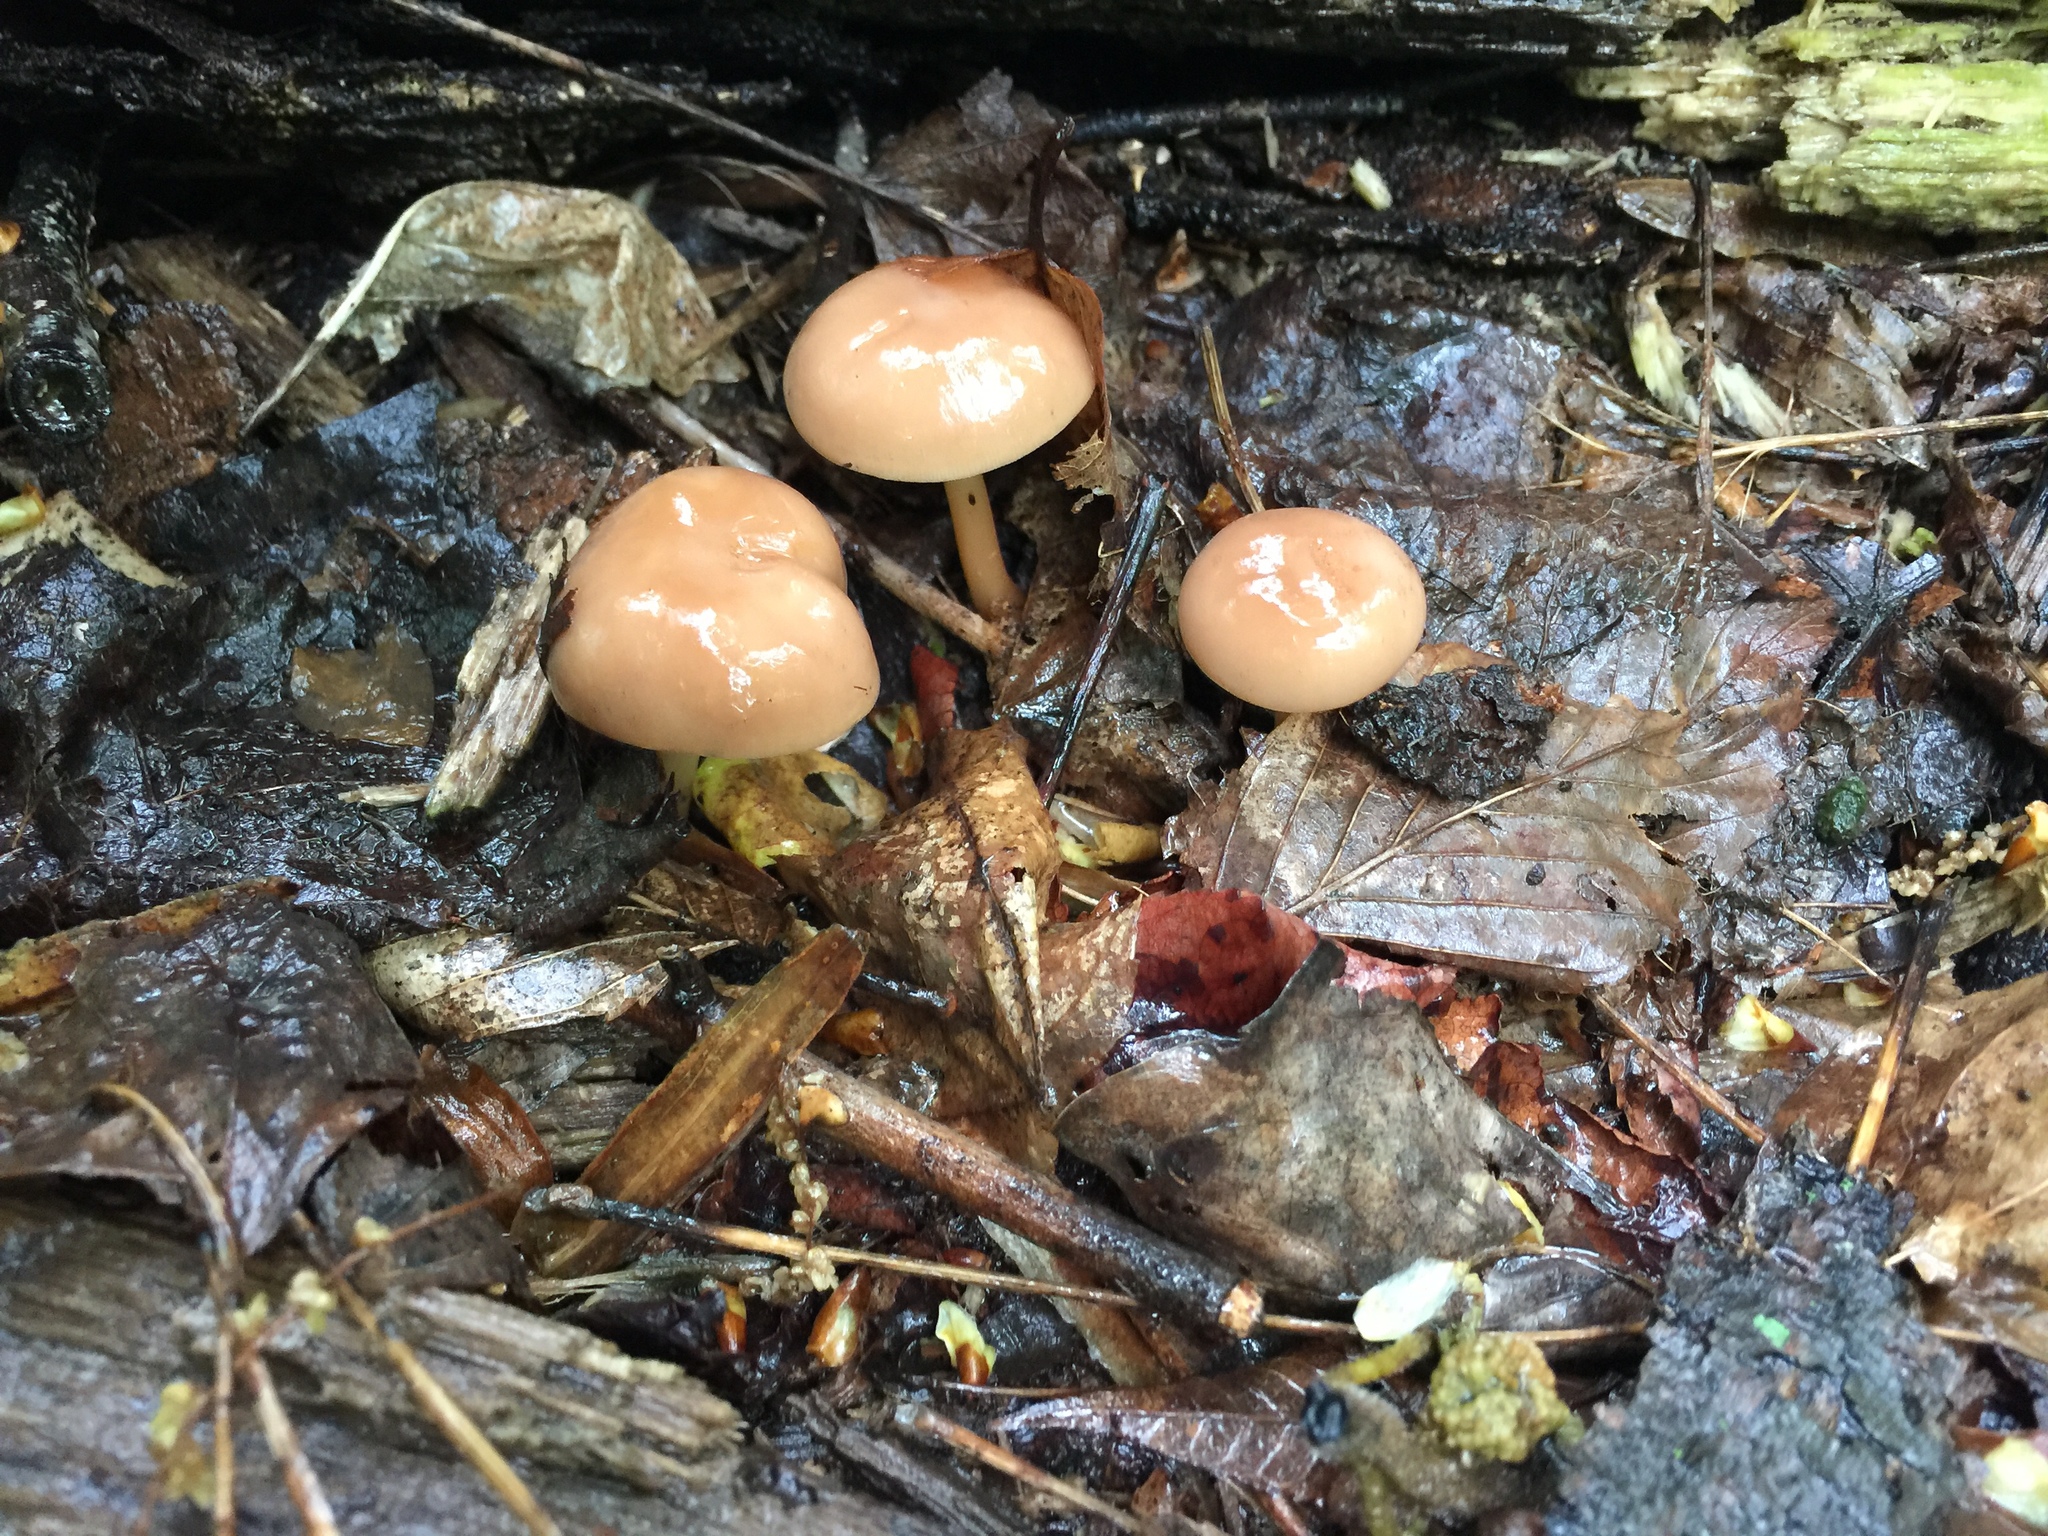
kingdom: Fungi
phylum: Basidiomycota
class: Agaricomycetes
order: Agaricales
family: Omphalotaceae
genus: Gymnopus
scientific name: Gymnopus dryophilus
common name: Penny top
